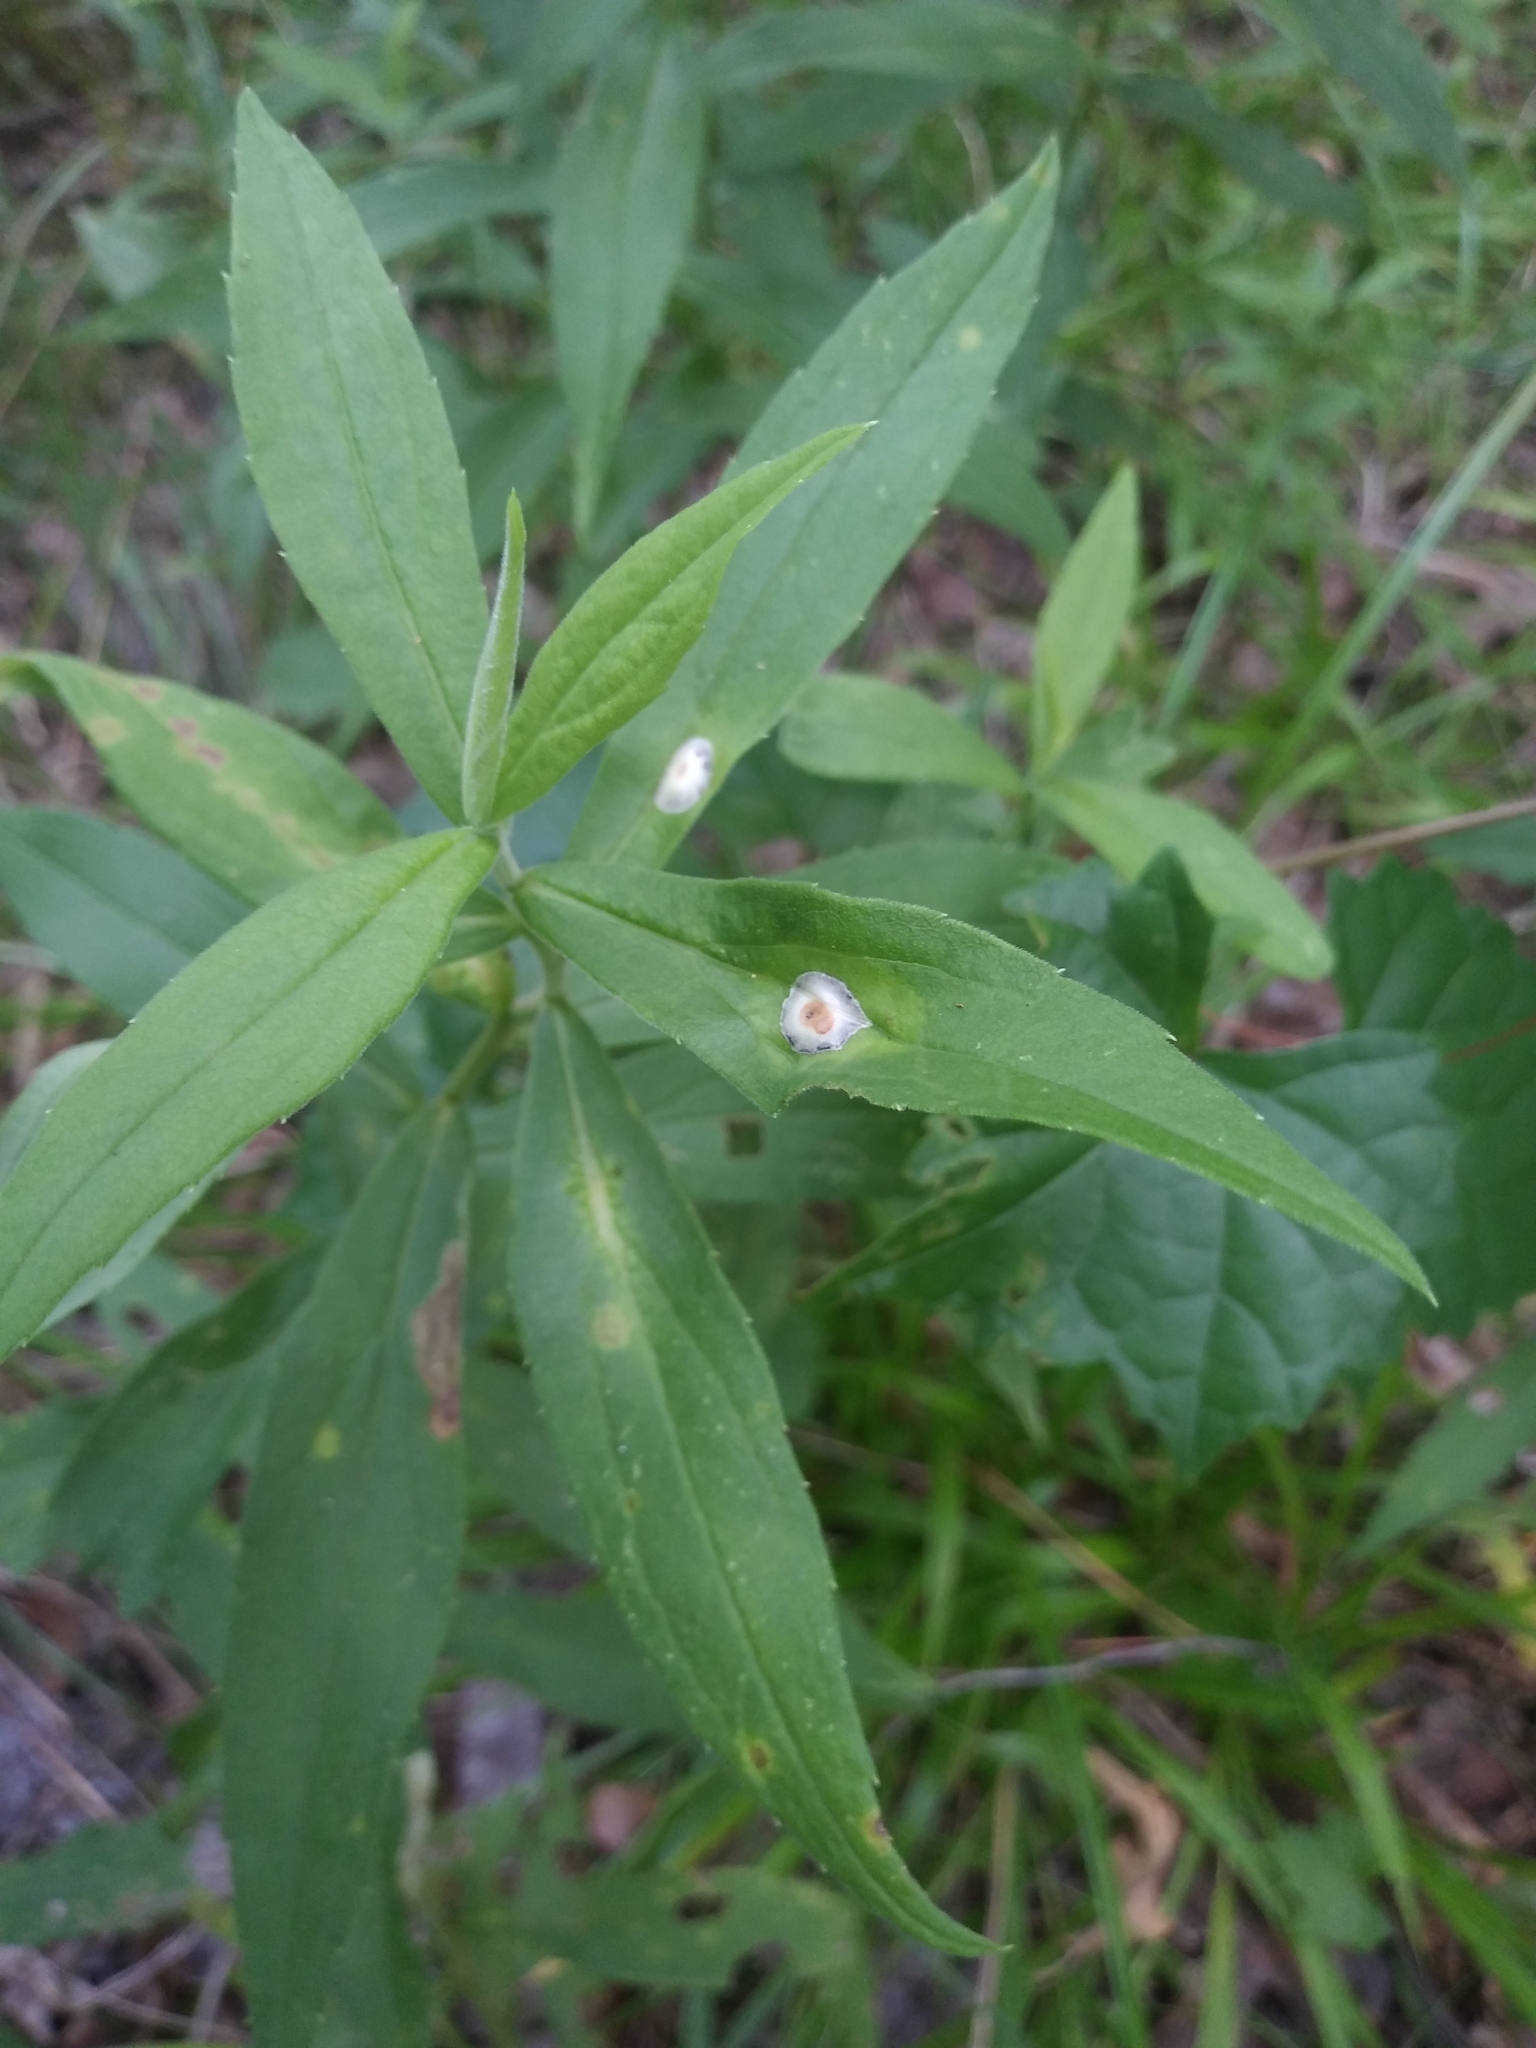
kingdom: Animalia
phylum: Arthropoda
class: Insecta
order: Diptera
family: Cecidomyiidae
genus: Asteromyia
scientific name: Asteromyia carbonifera
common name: Carbonifera goldenrod gall midge
